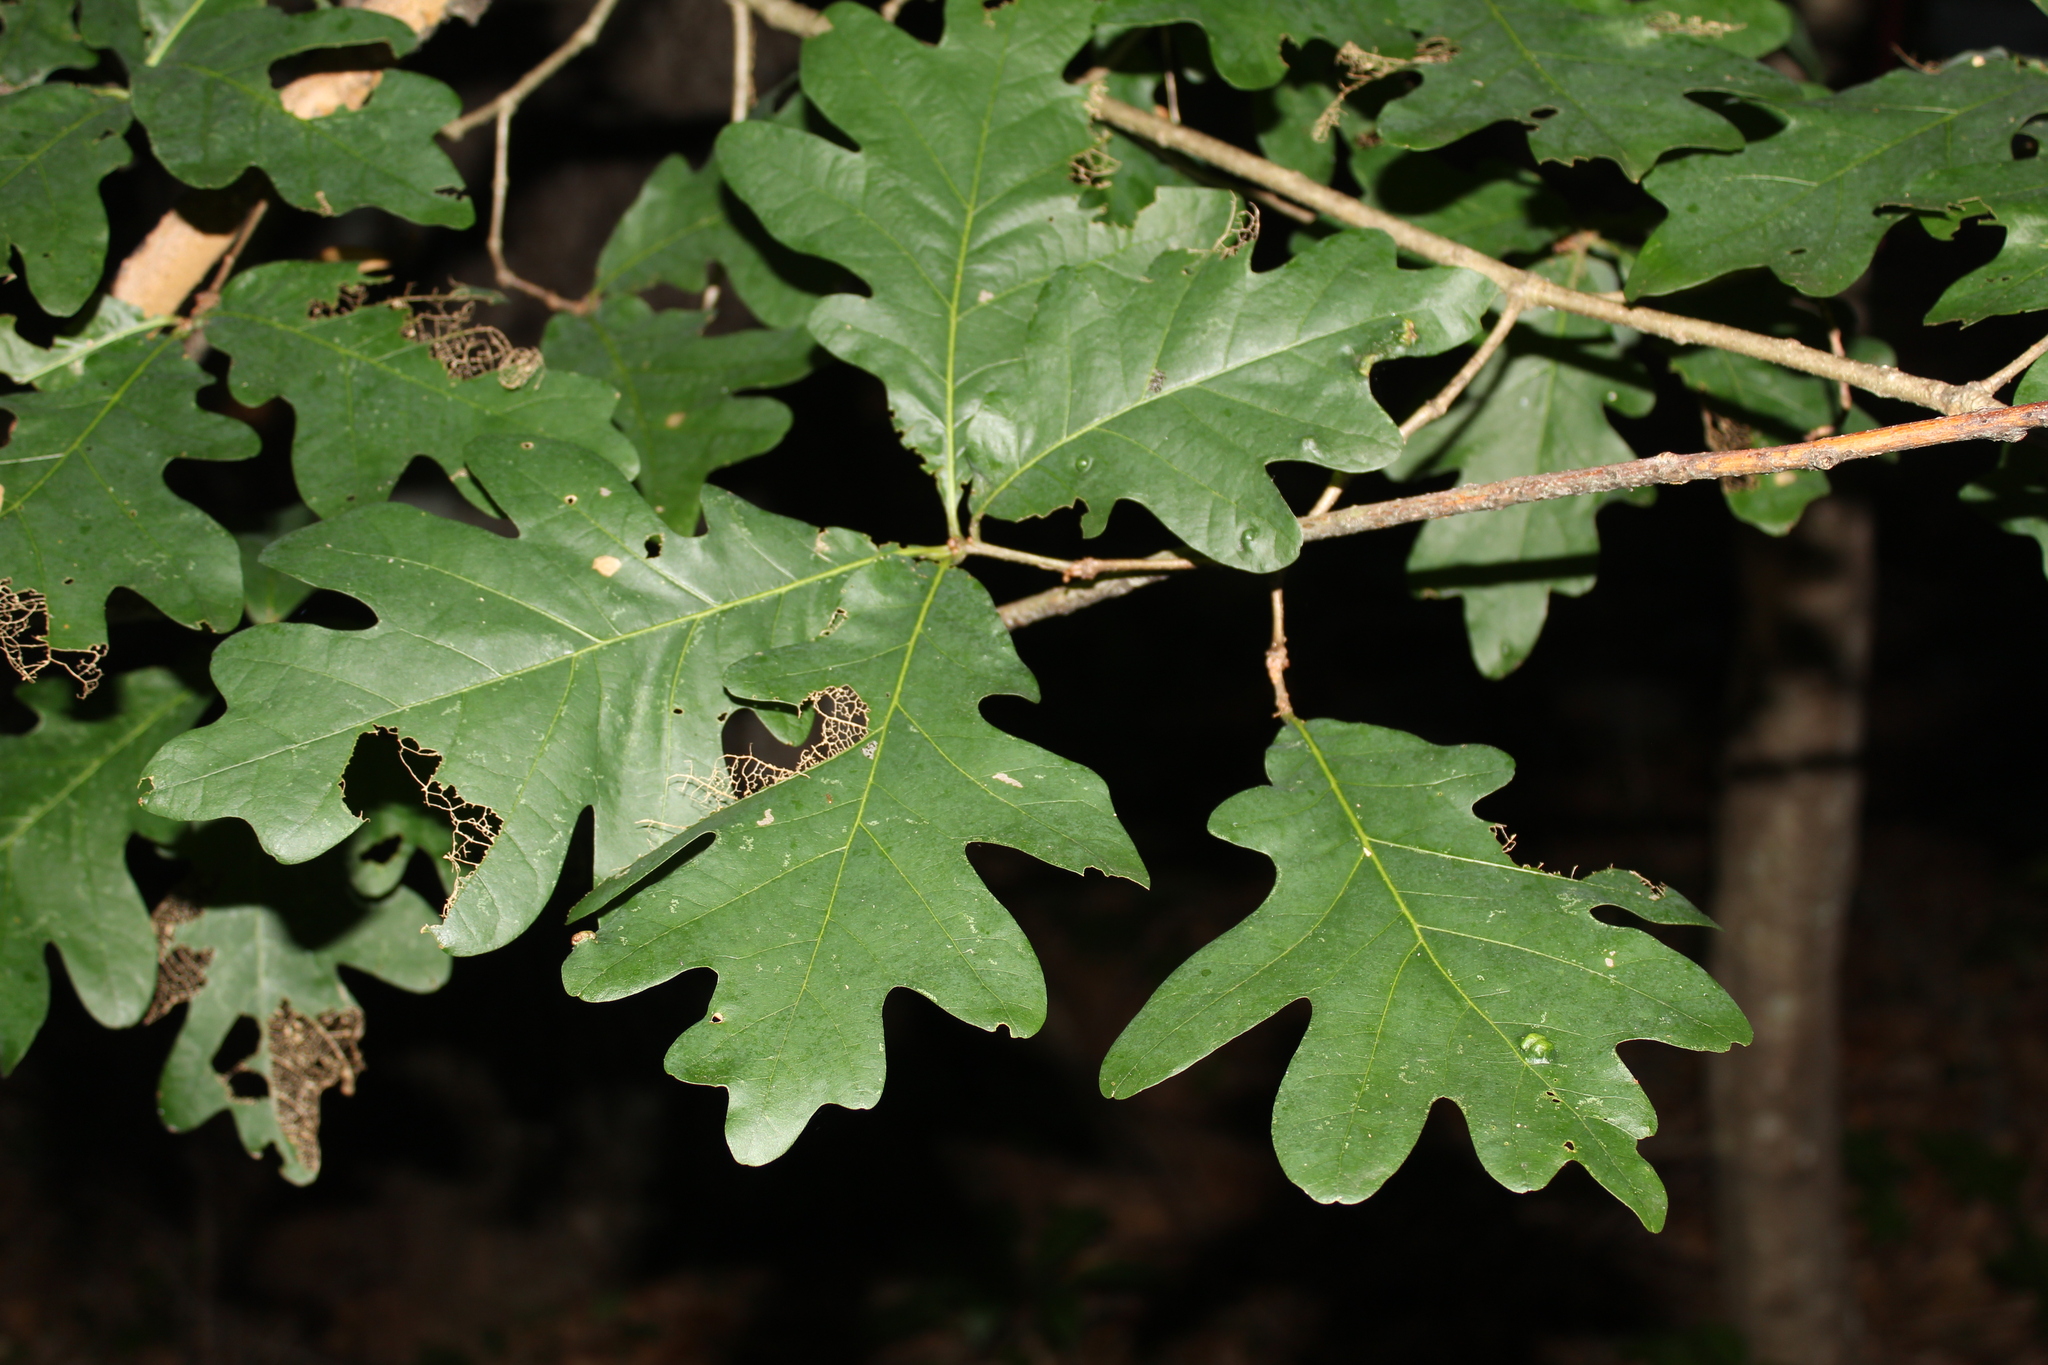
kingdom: Plantae
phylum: Tracheophyta
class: Magnoliopsida
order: Fagales
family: Fagaceae
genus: Quercus
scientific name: Quercus alba
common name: White oak
